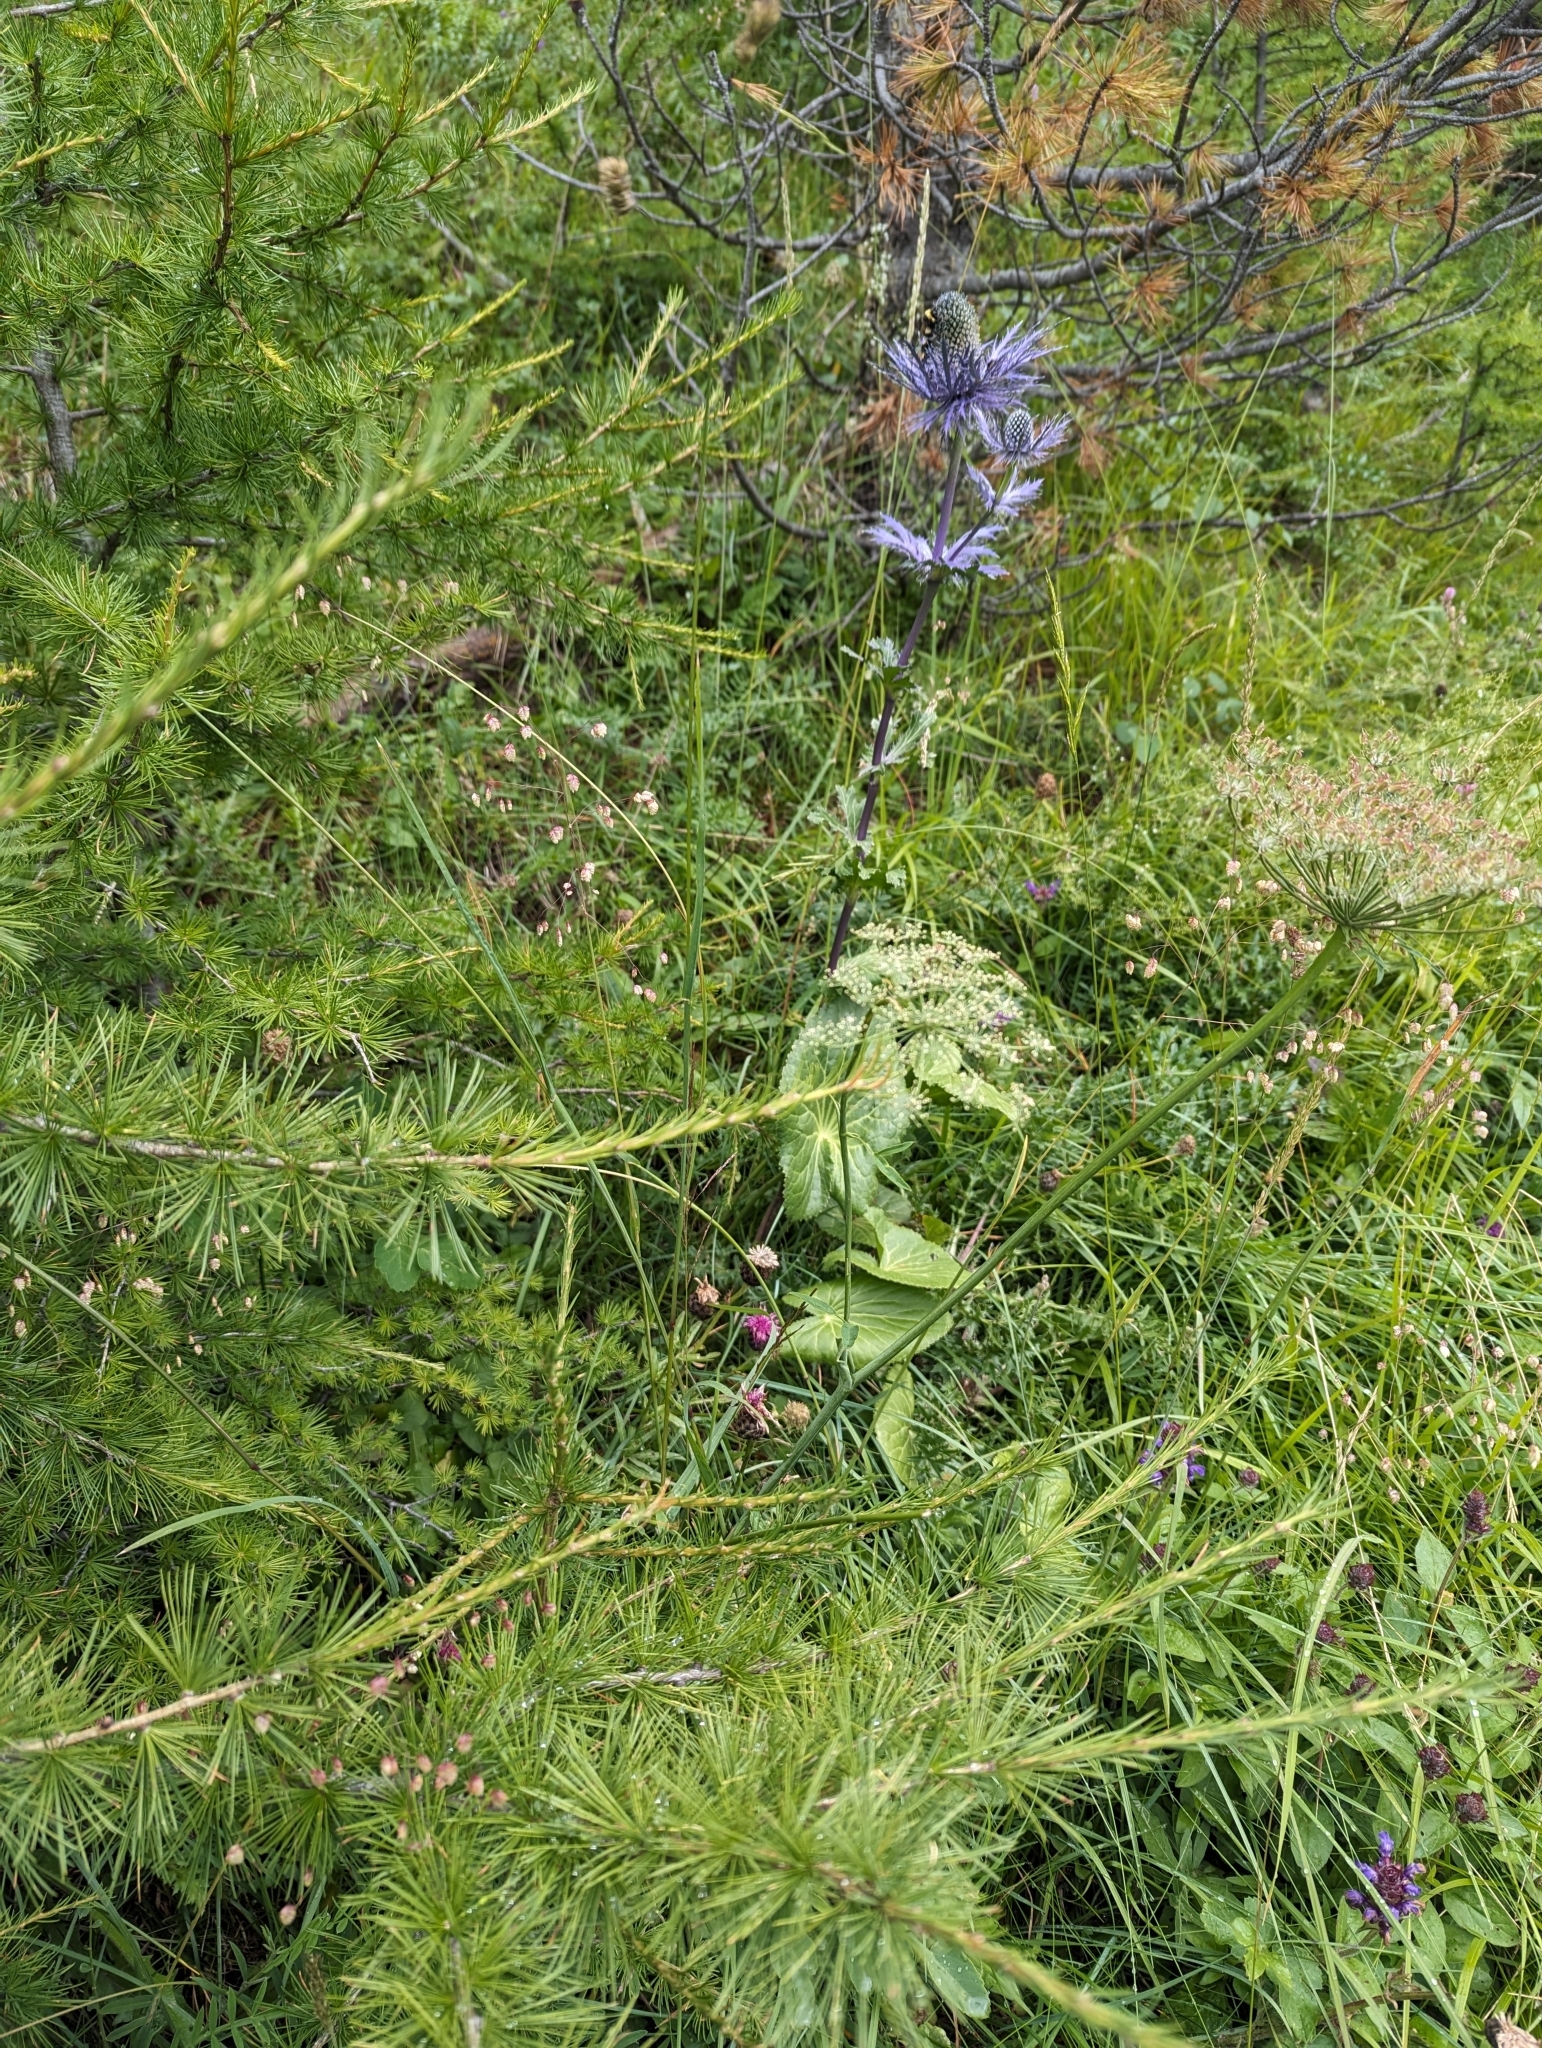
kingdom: Plantae
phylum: Tracheophyta
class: Magnoliopsida
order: Apiales
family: Apiaceae
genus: Eryngium
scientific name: Eryngium alpinum
